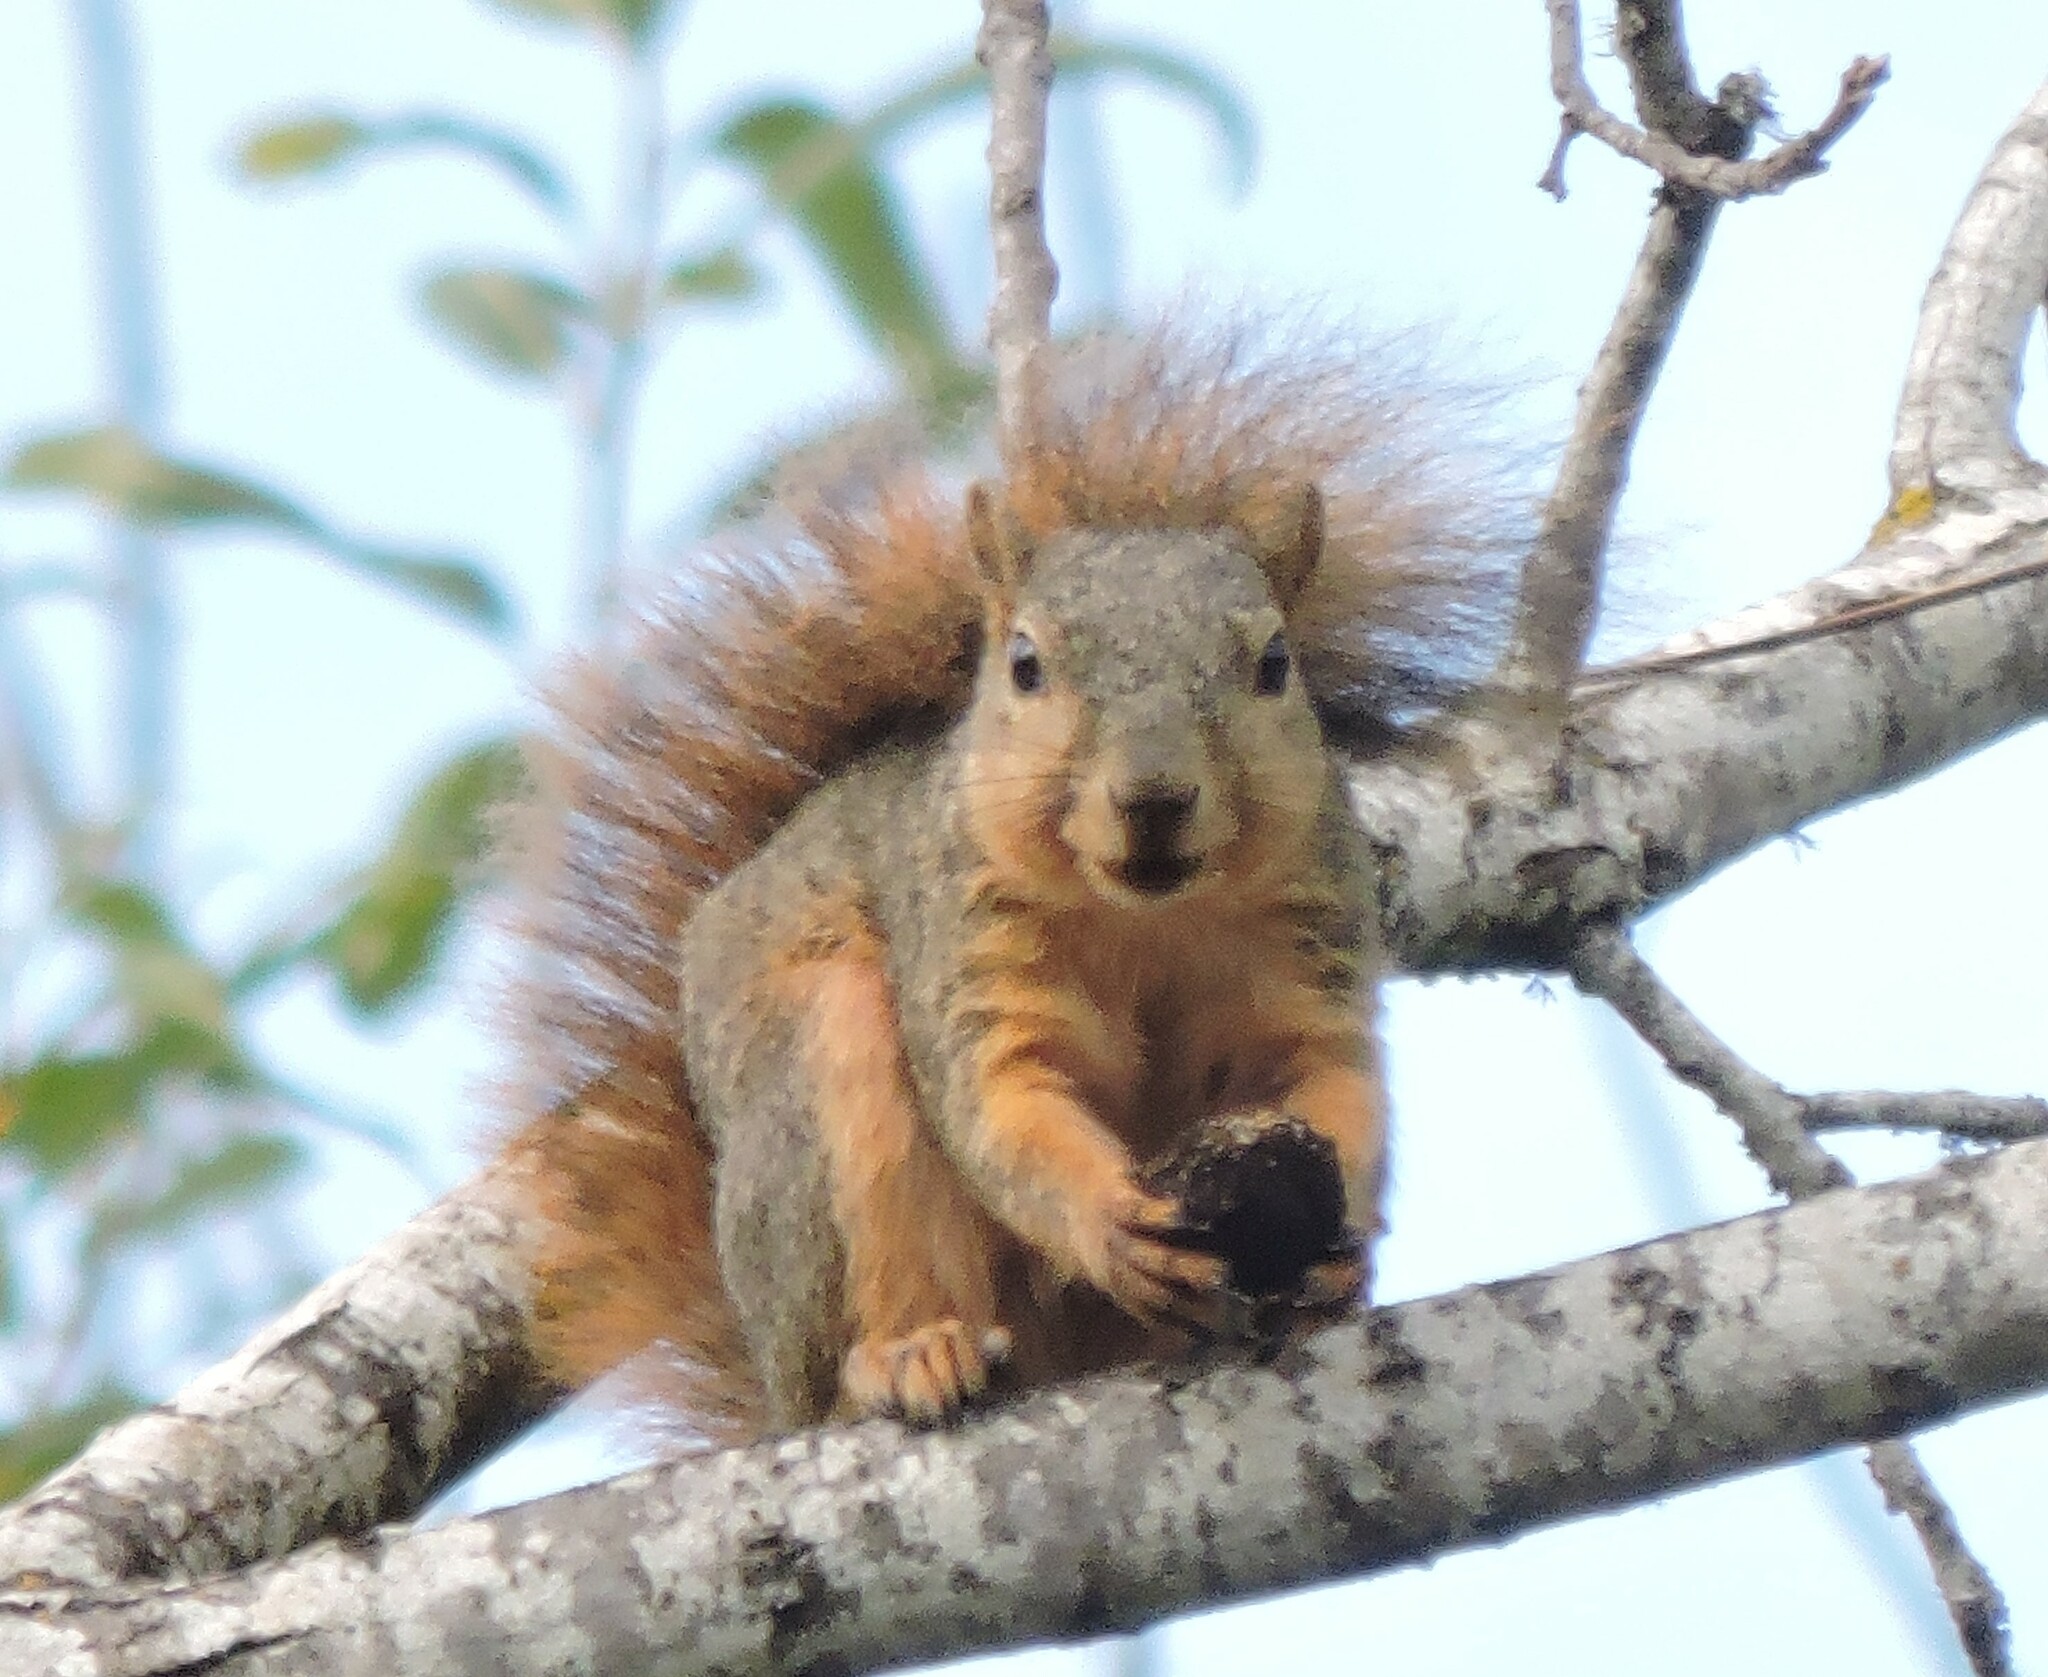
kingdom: Animalia
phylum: Chordata
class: Mammalia
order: Rodentia
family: Sciuridae
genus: Sciurus
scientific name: Sciurus niger
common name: Fox squirrel
